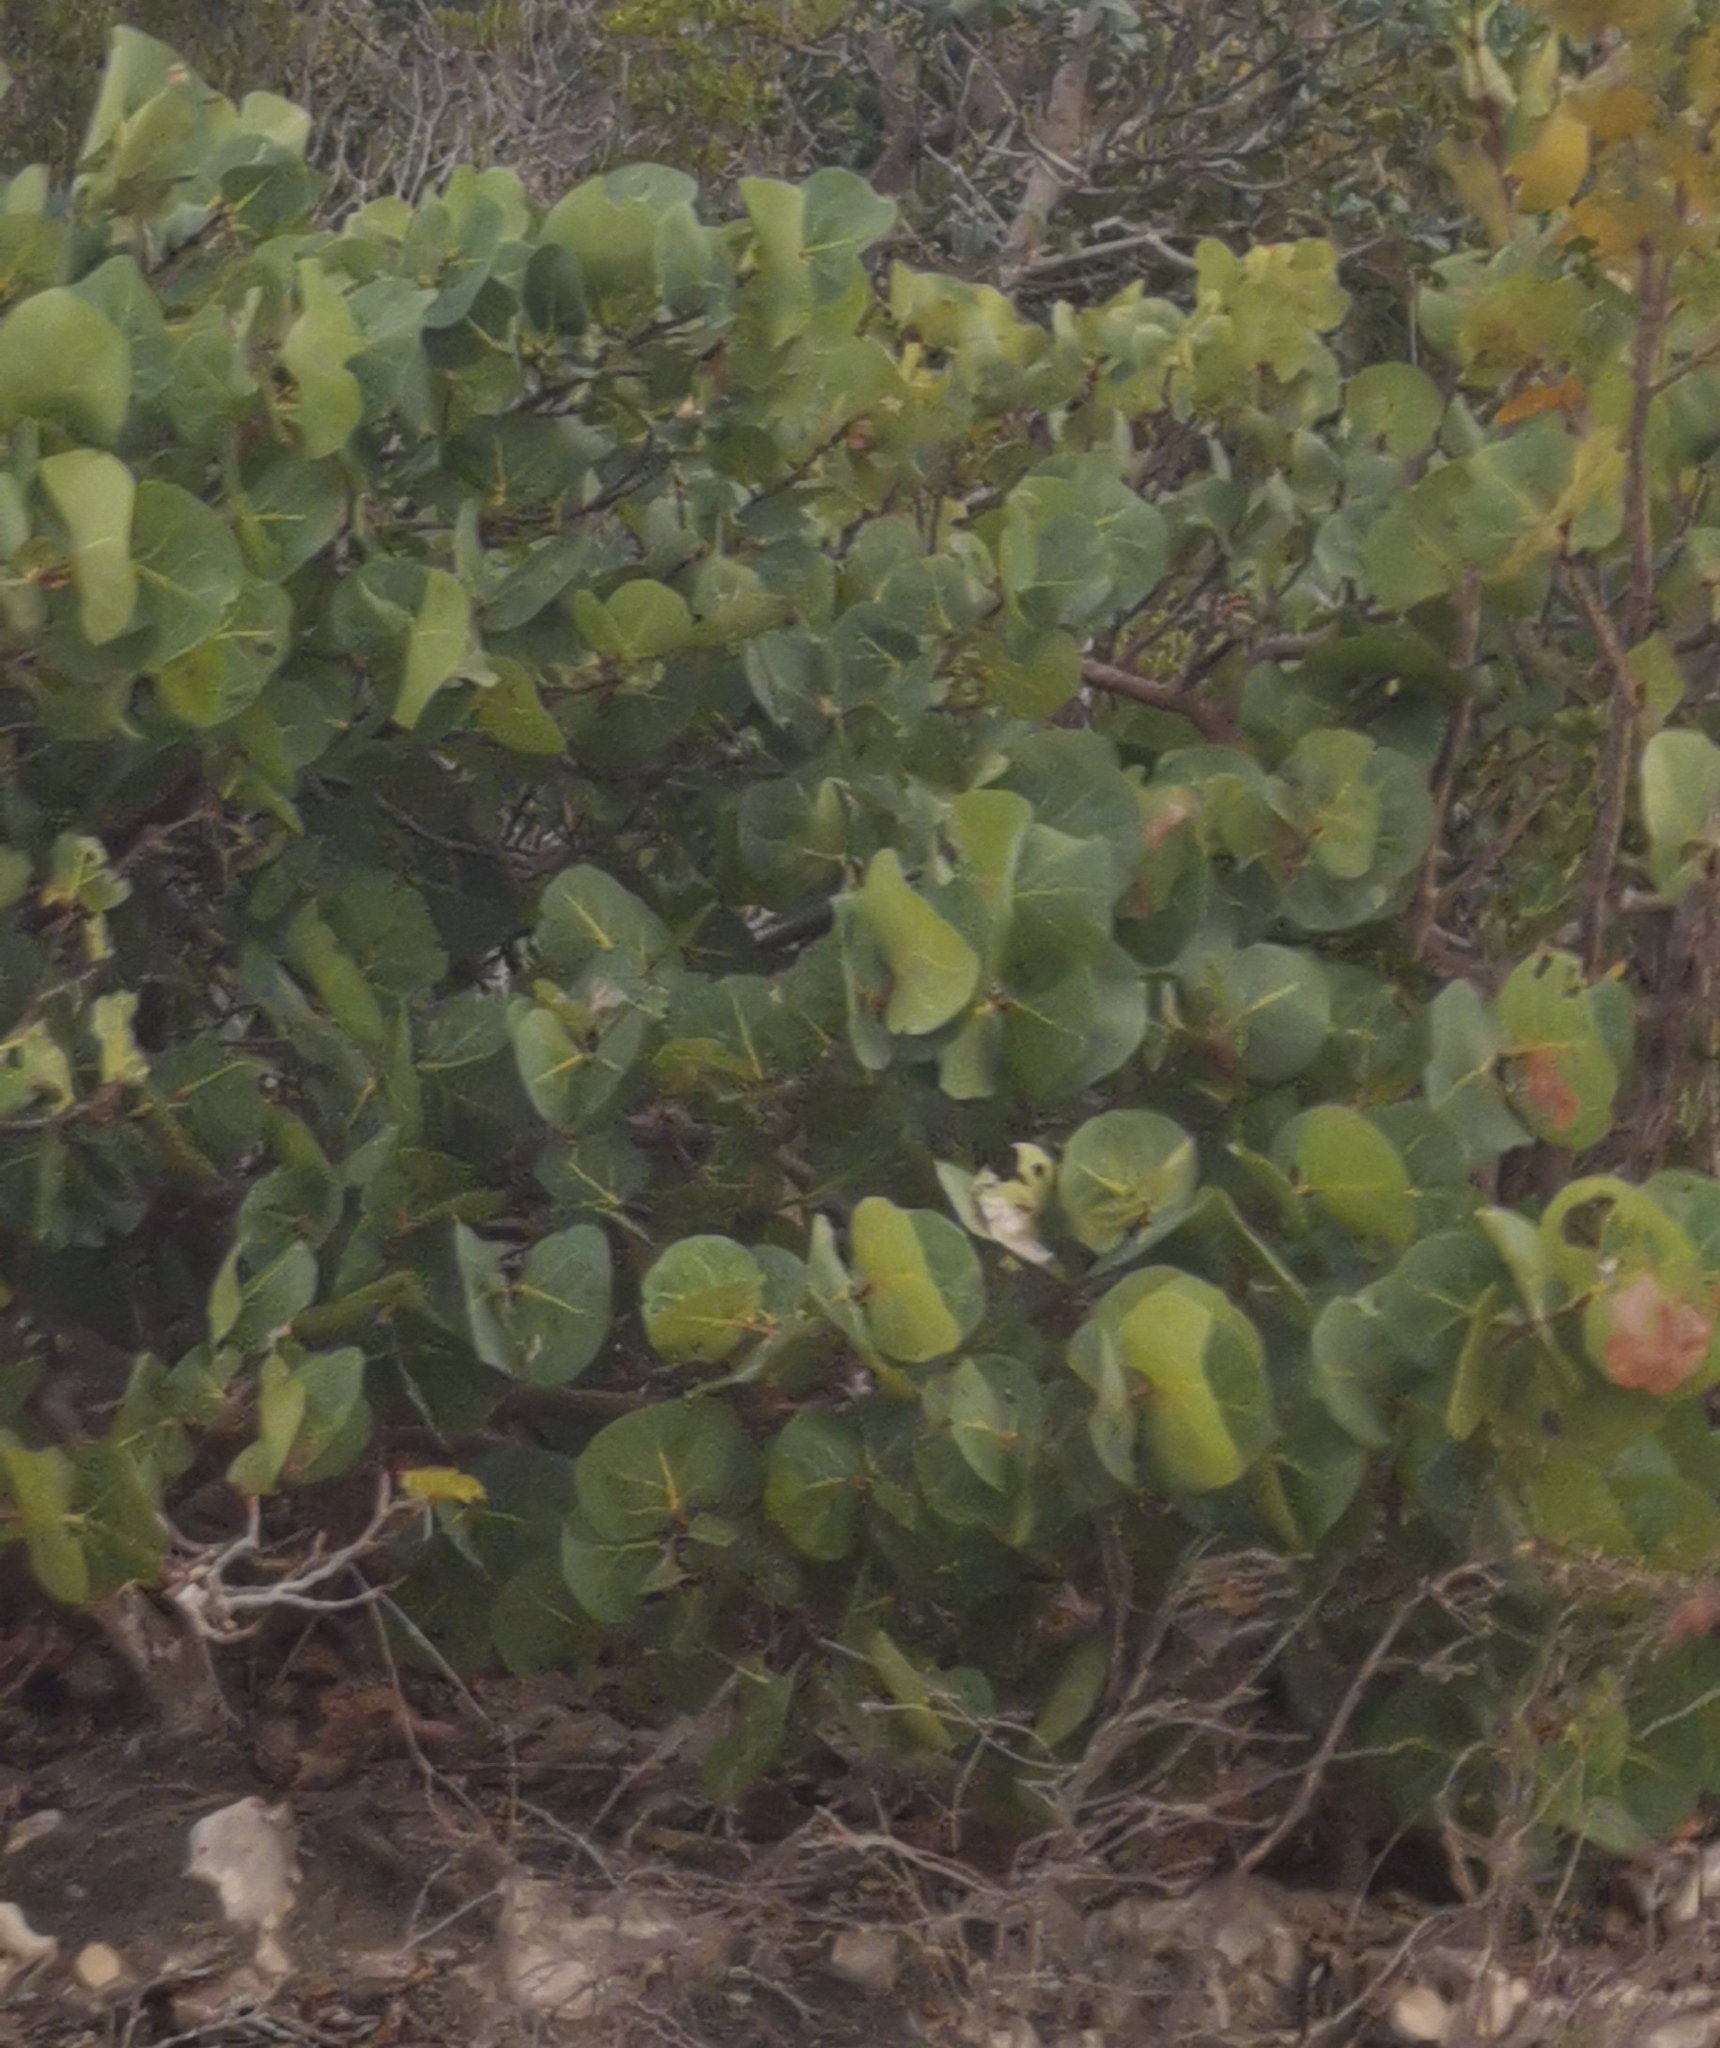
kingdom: Plantae
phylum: Tracheophyta
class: Magnoliopsida
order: Caryophyllales
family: Polygonaceae
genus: Coccoloba
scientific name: Coccoloba uvifera
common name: Seagrape
